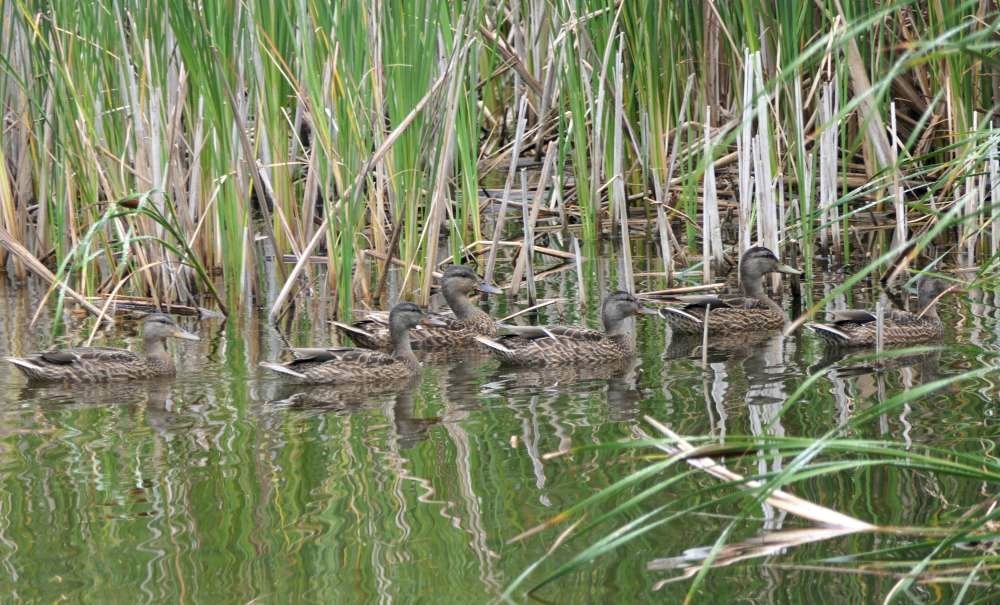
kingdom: Animalia
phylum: Chordata
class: Aves
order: Anseriformes
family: Anatidae
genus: Anas
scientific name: Anas platyrhynchos
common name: Mallard
